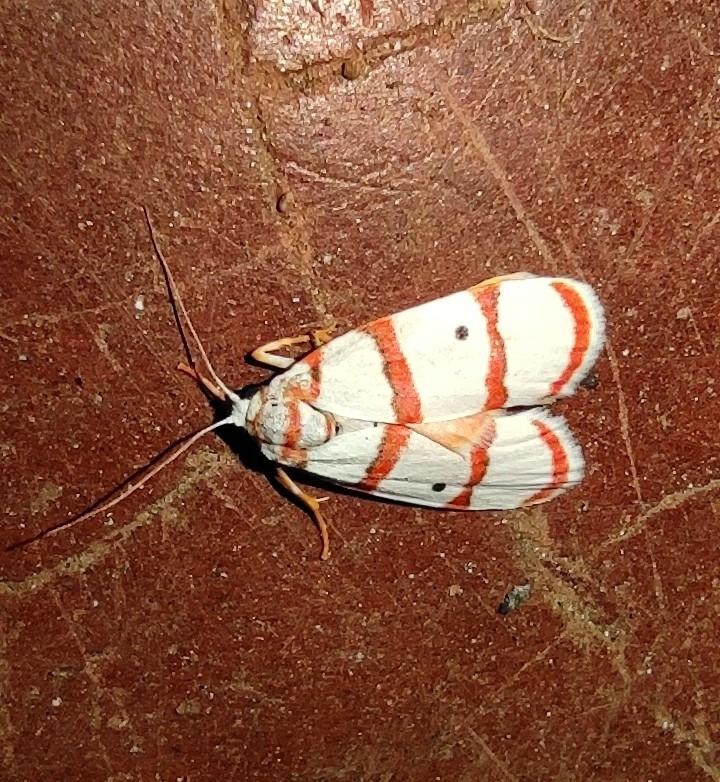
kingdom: Animalia
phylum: Arthropoda
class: Insecta
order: Lepidoptera
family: Erebidae
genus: Cyana
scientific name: Cyana peregrina
